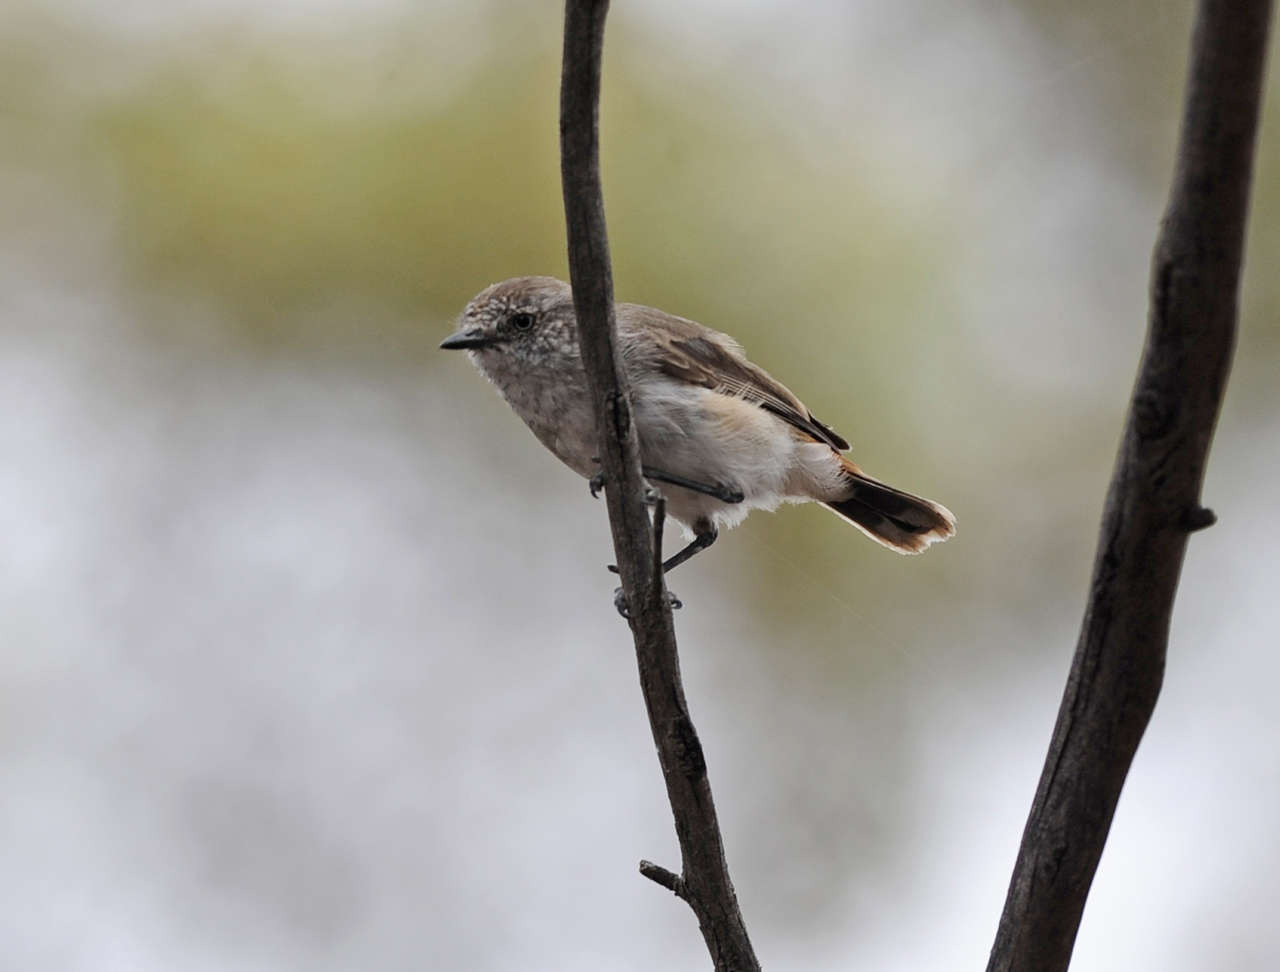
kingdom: Animalia
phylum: Chordata
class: Aves
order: Passeriformes
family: Acanthizidae
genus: Acanthiza
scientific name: Acanthiza uropygialis
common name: Chestnut-rumped thornbill
